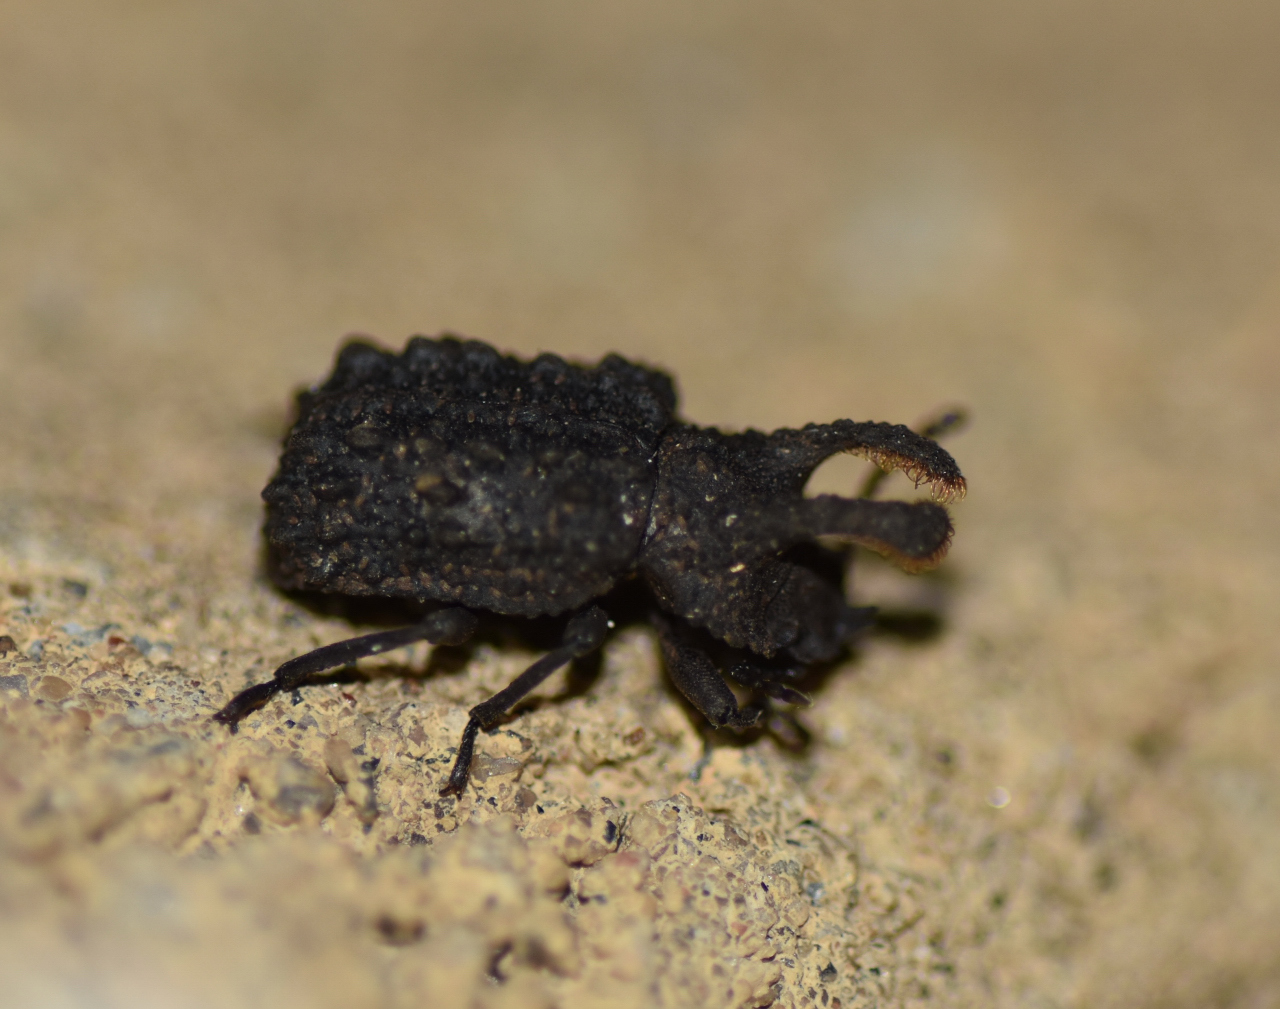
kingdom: Animalia
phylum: Arthropoda
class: Insecta
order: Coleoptera
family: Tenebrionidae
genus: Gnatocerus
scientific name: Gnatocerus cornutus
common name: Broad-horned flour beetle
